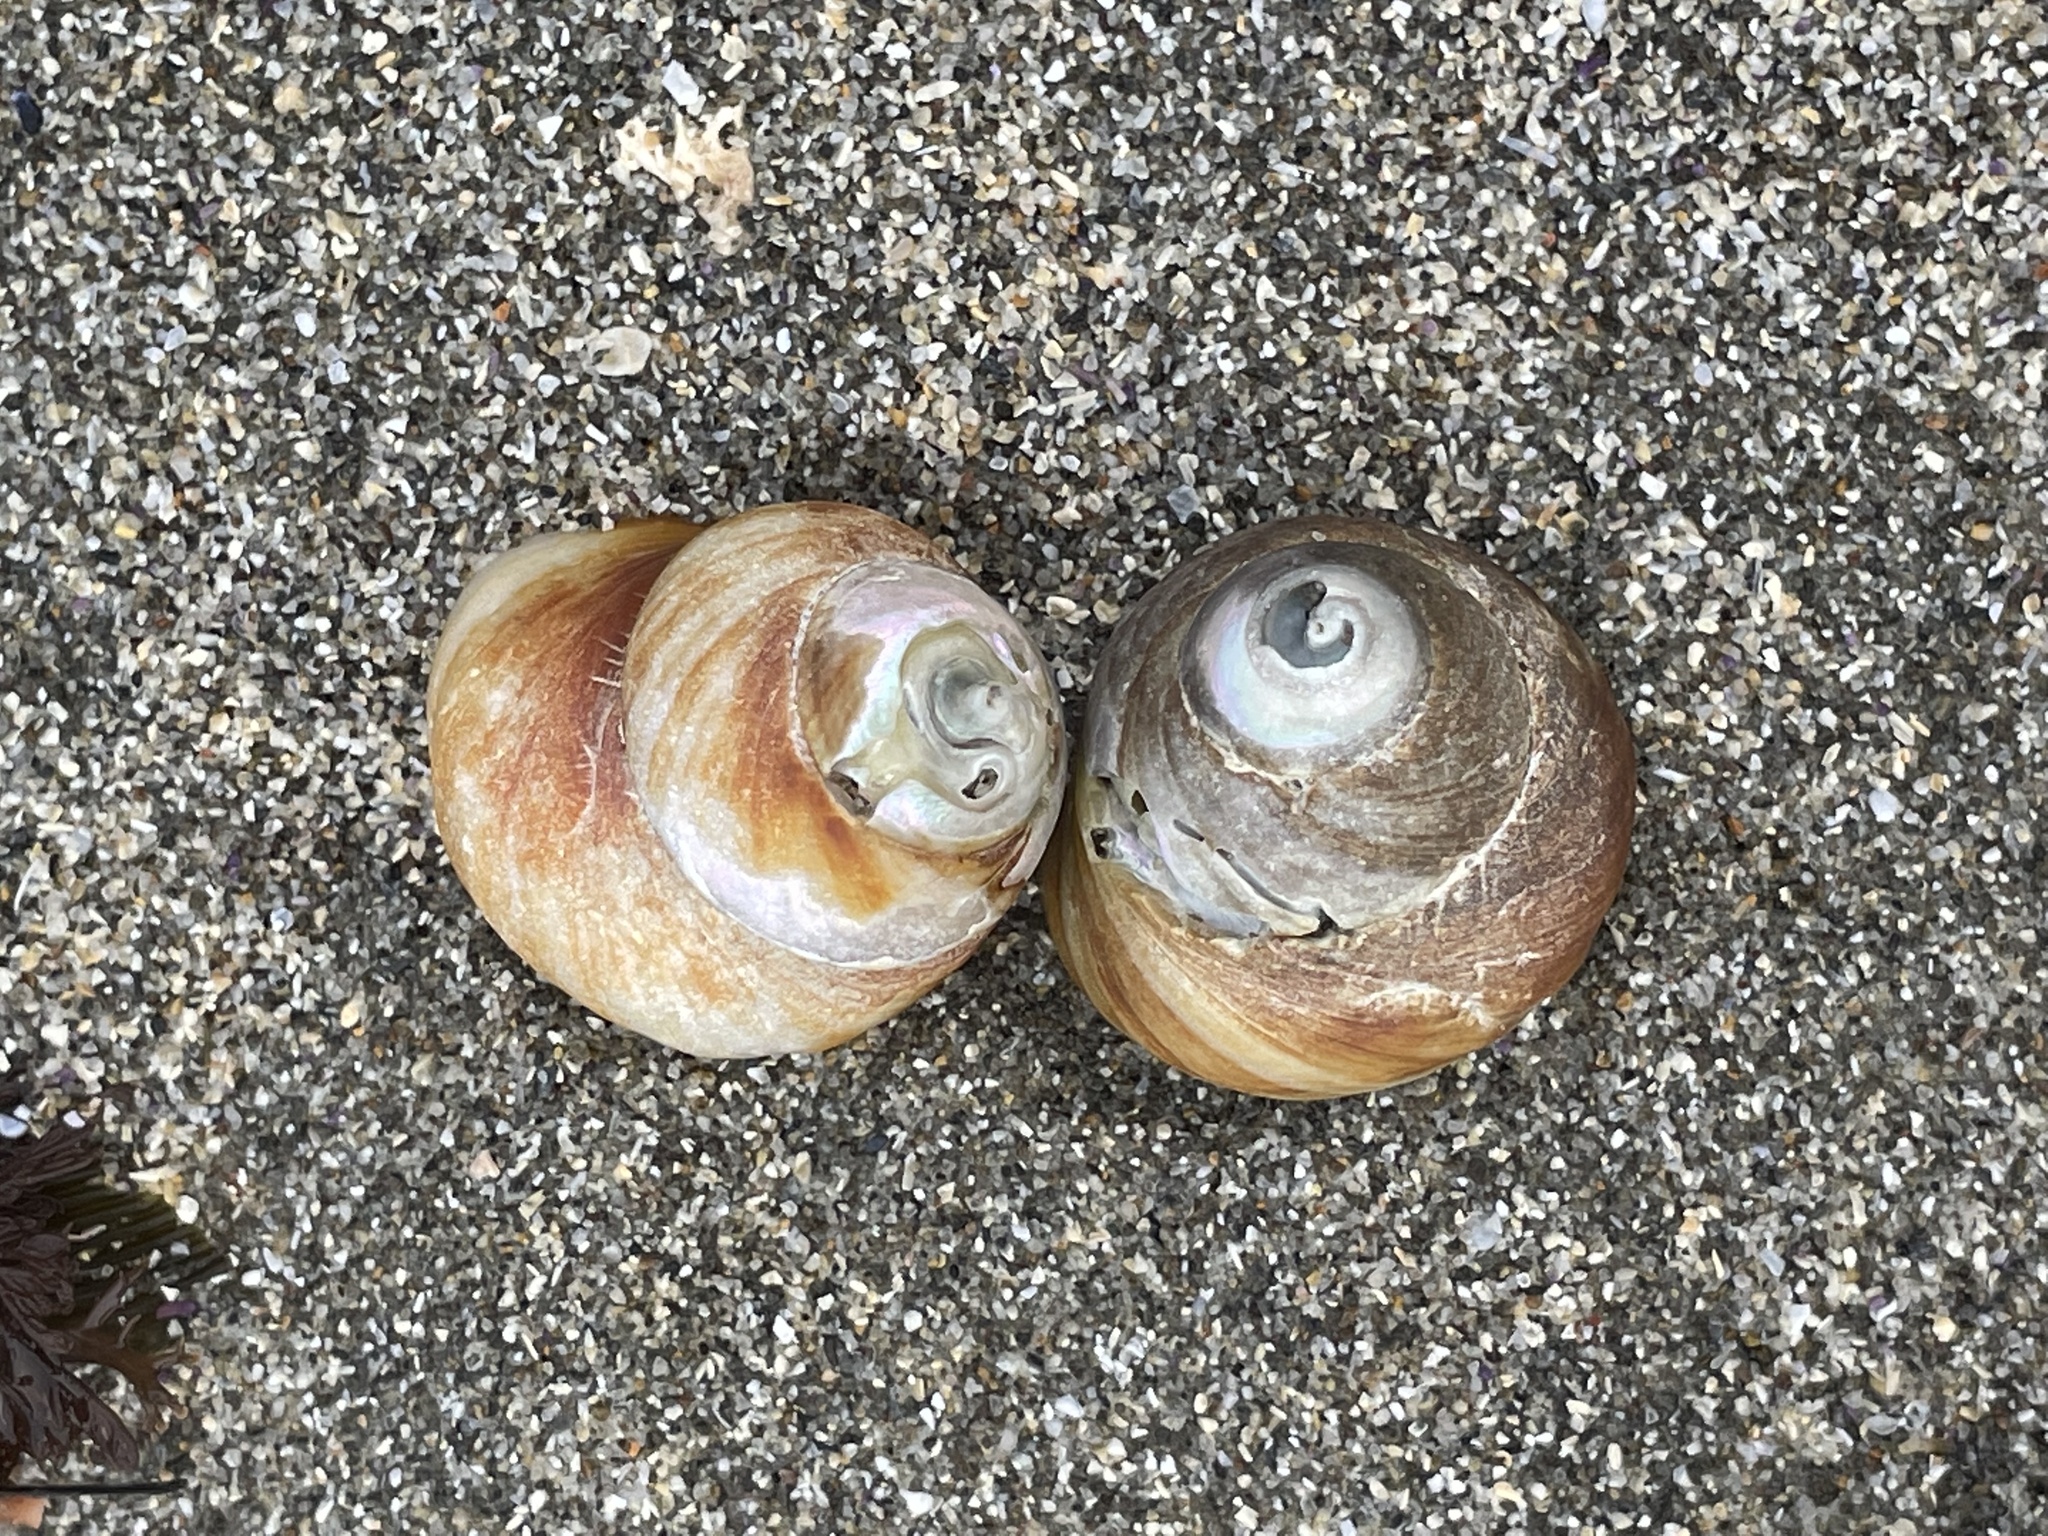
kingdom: Animalia
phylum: Mollusca
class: Gastropoda
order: Trochida
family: Tegulidae
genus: Tegula
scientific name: Tegula brunnea
